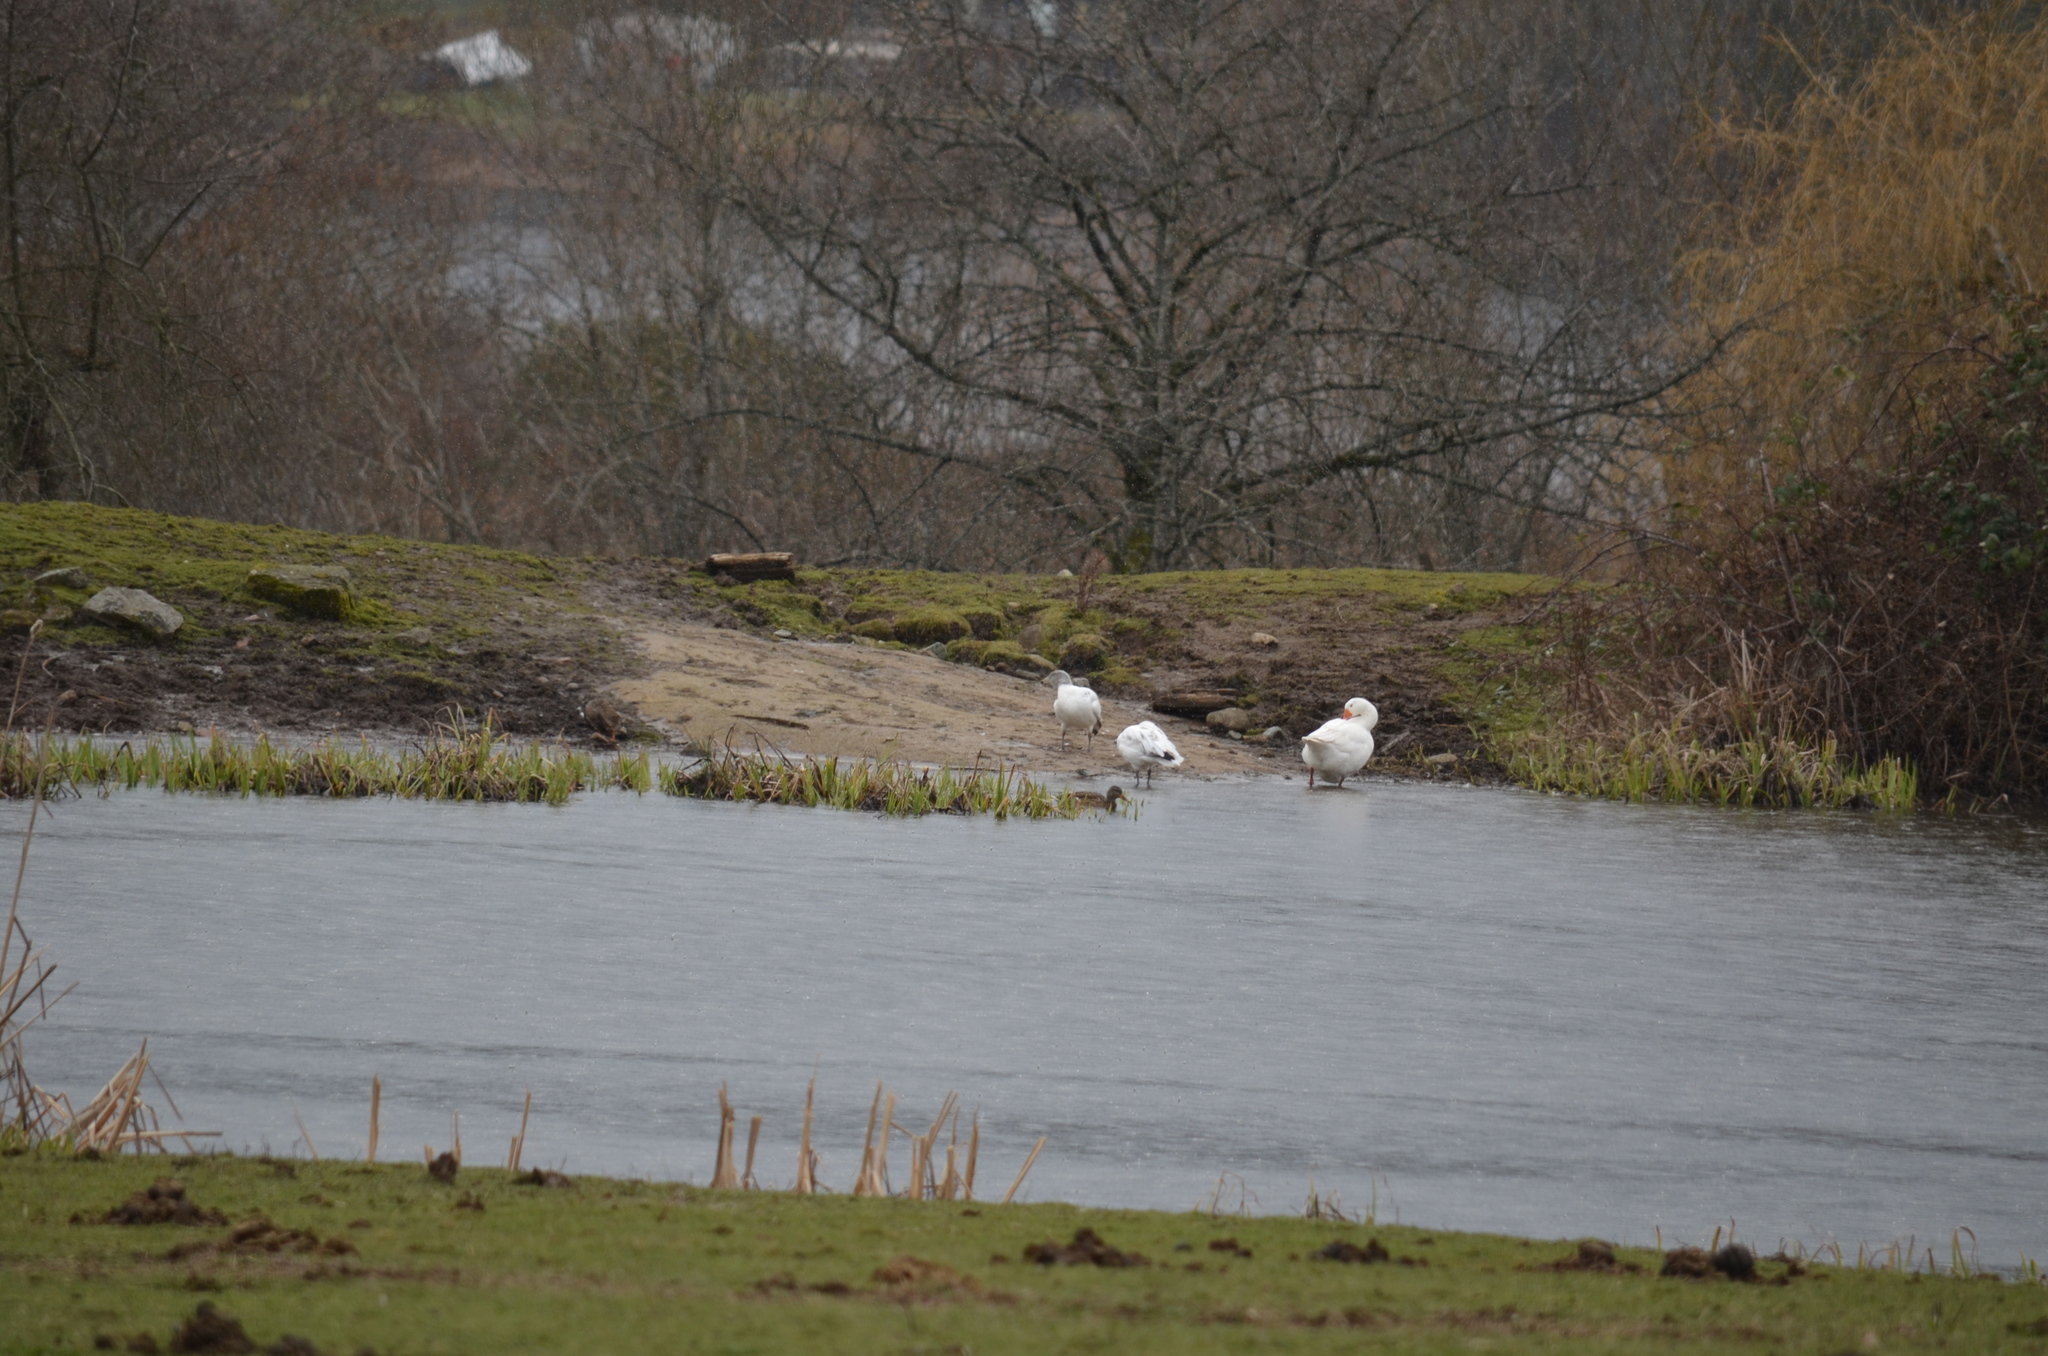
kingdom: Animalia
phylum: Chordata
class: Aves
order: Anseriformes
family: Anatidae
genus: Anser
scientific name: Anser caerulescens
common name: Snow goose
